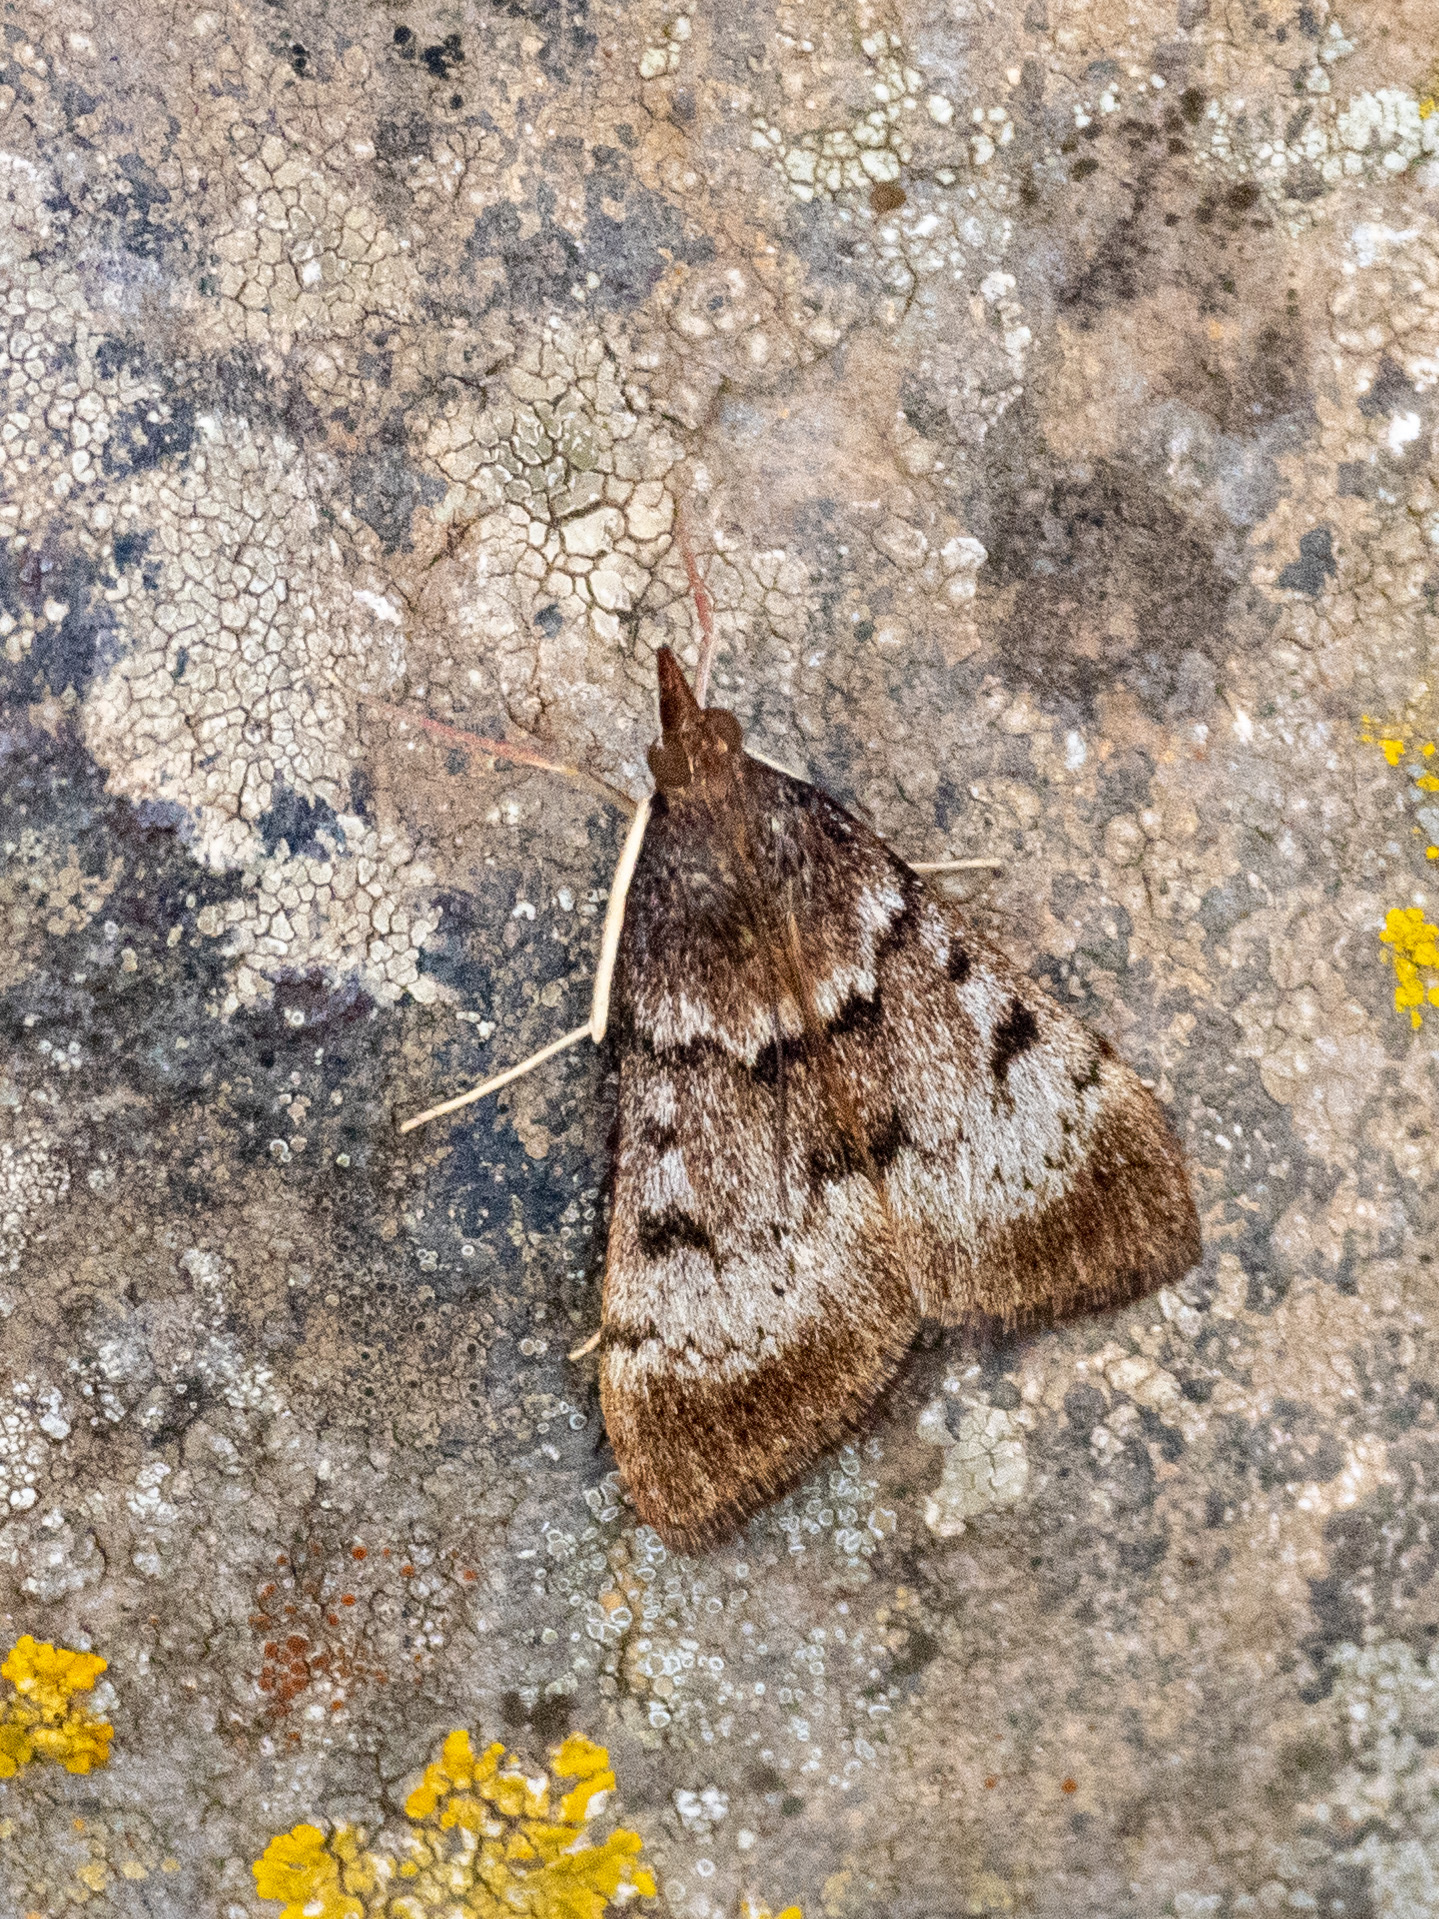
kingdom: Animalia
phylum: Arthropoda
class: Insecta
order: Lepidoptera
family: Crambidae
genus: Uresiphita
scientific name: Uresiphita gilvata
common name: Yellow-underwing pearl
